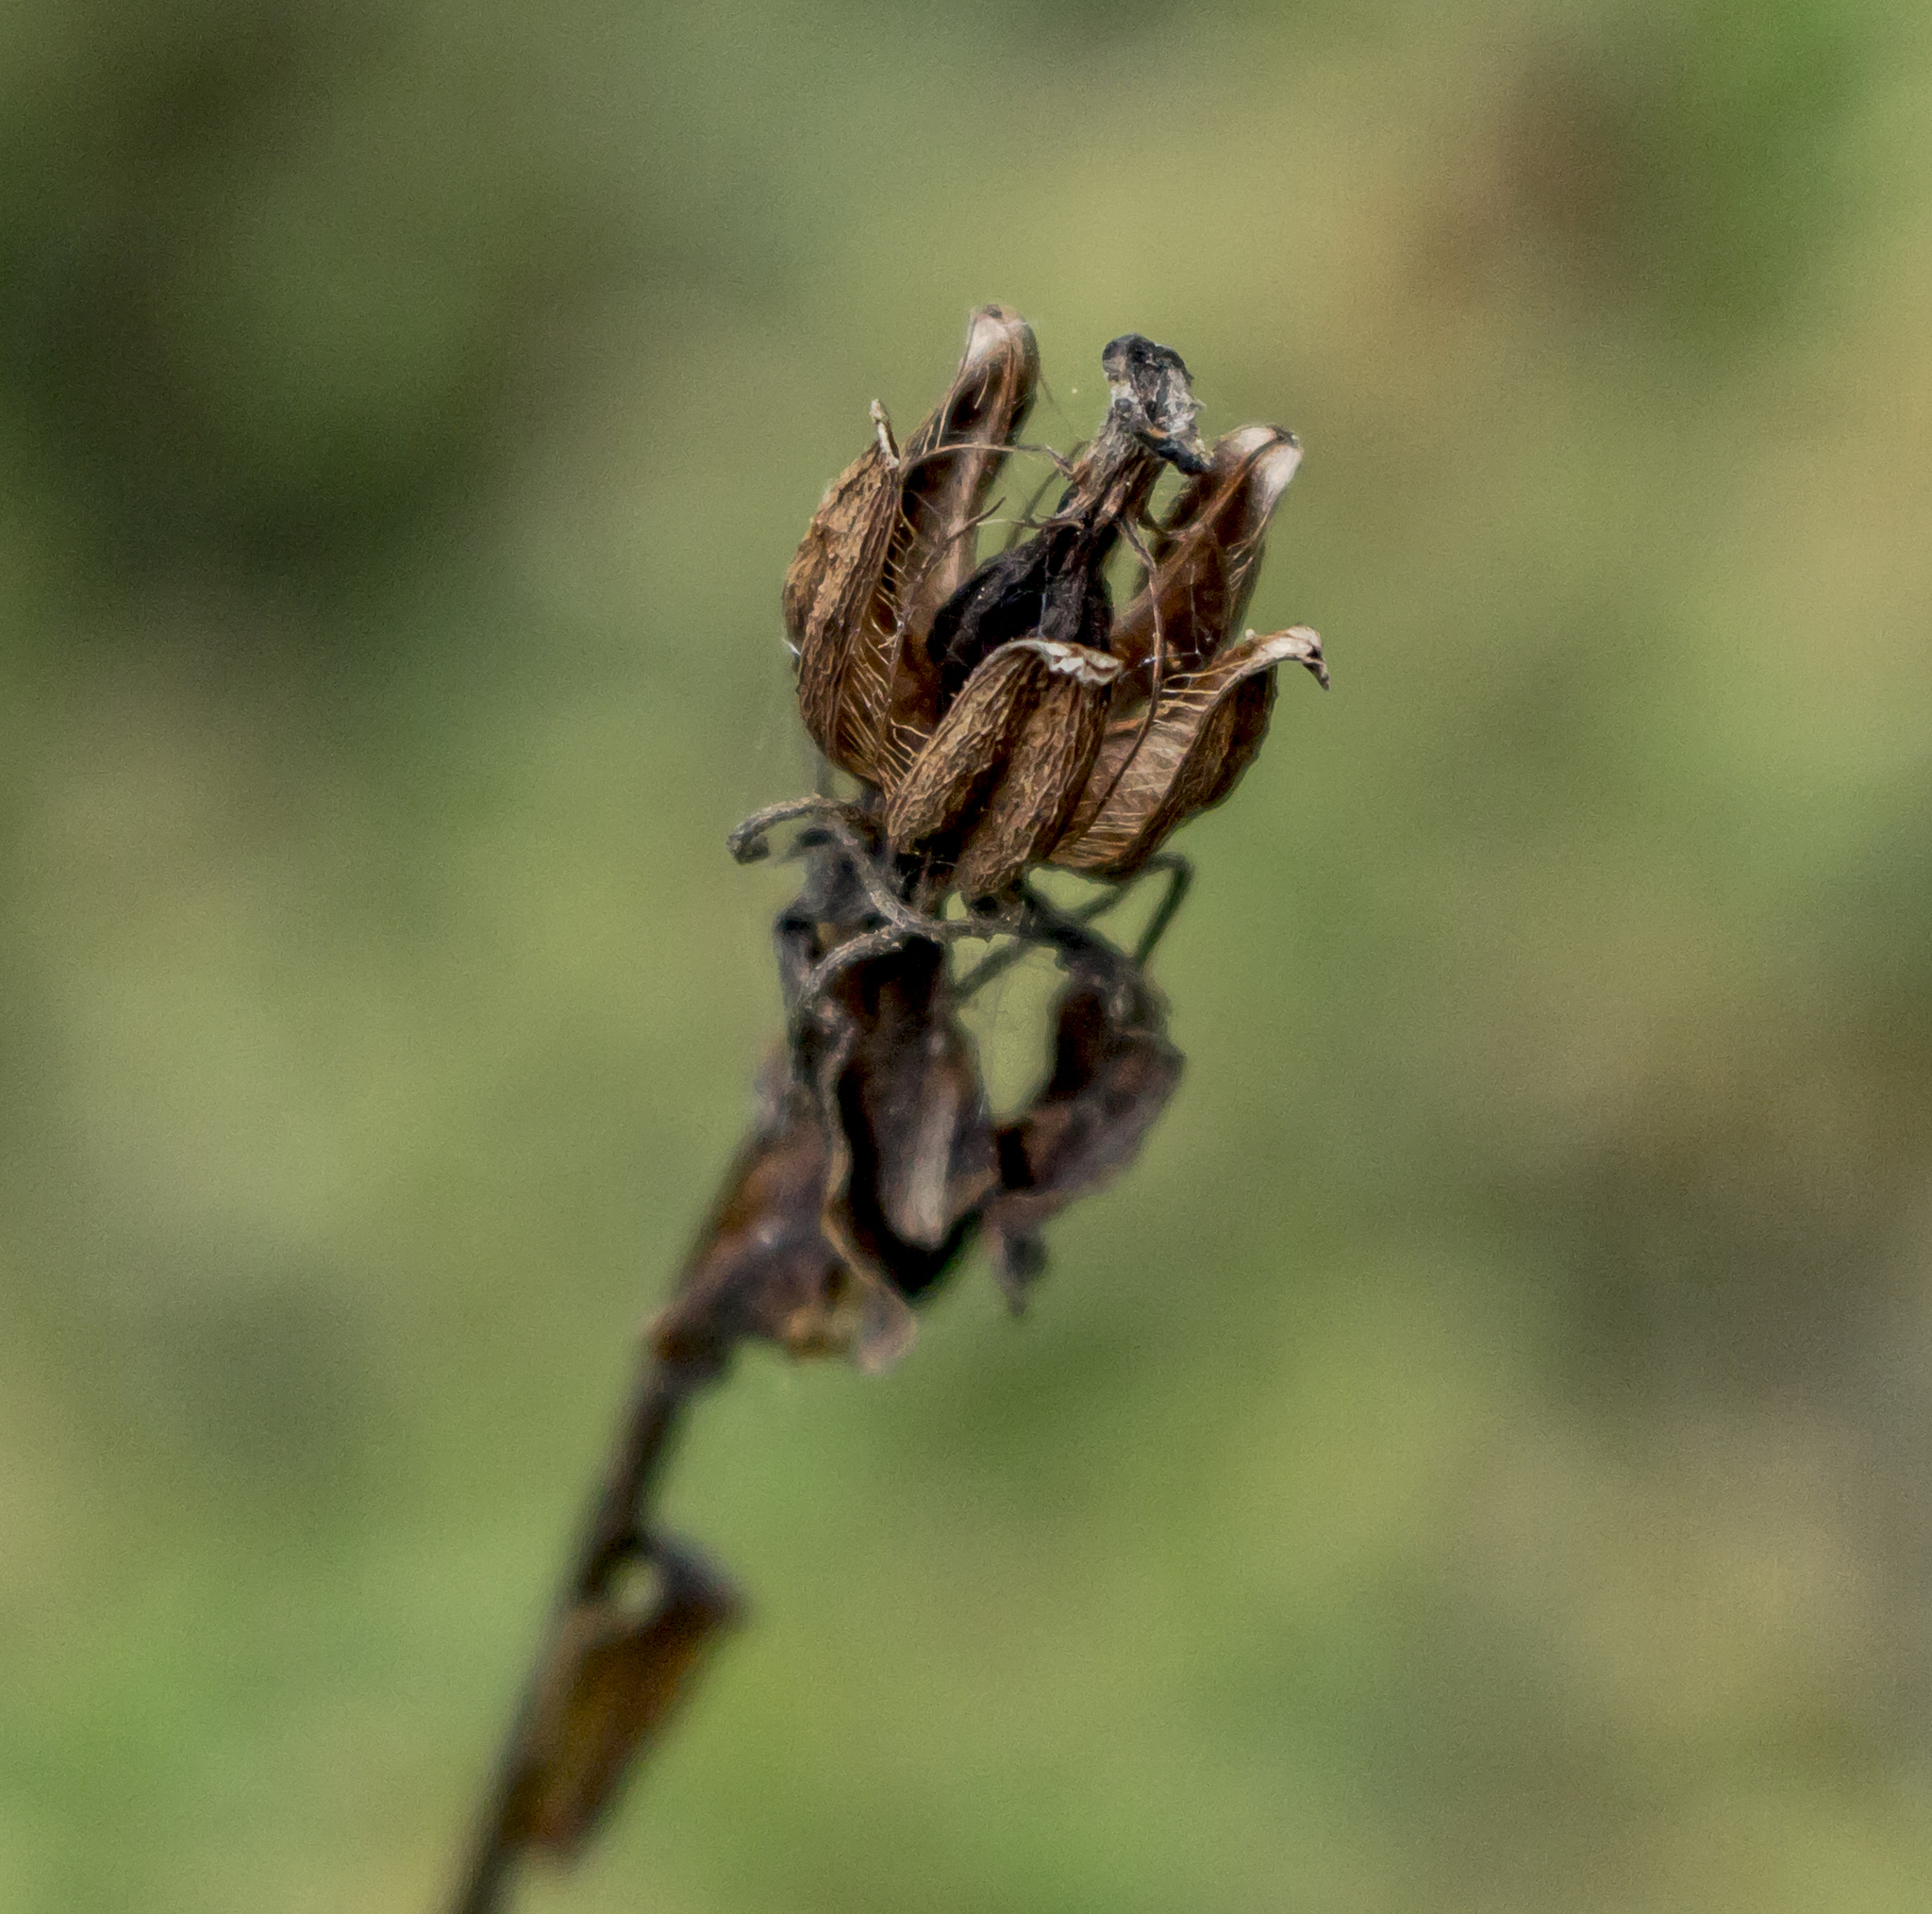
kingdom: Plantae
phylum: Tracheophyta
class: Magnoliopsida
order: Ericales
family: Ericaceae
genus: Monotropa
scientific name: Monotropa uniflora
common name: Convulsion root
